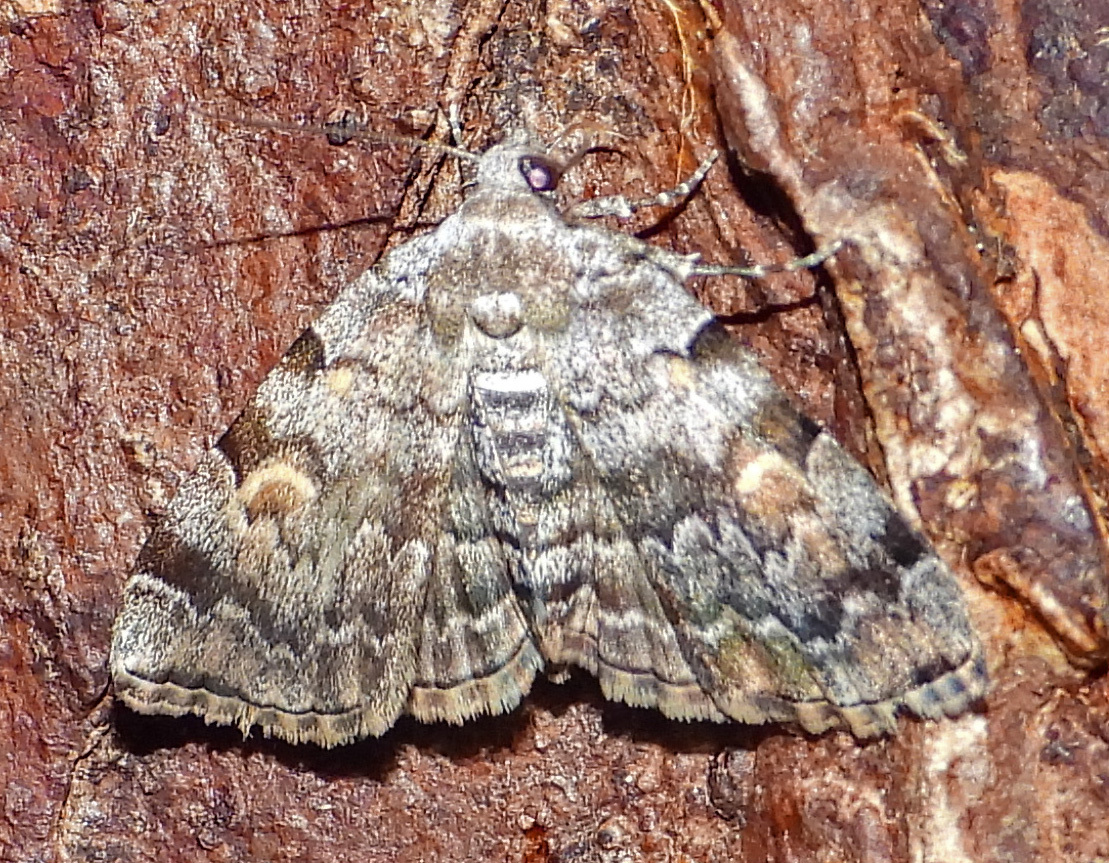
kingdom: Animalia
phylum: Arthropoda
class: Insecta
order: Lepidoptera
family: Erebidae
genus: Idia
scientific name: Idia americalis
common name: American idia moth
